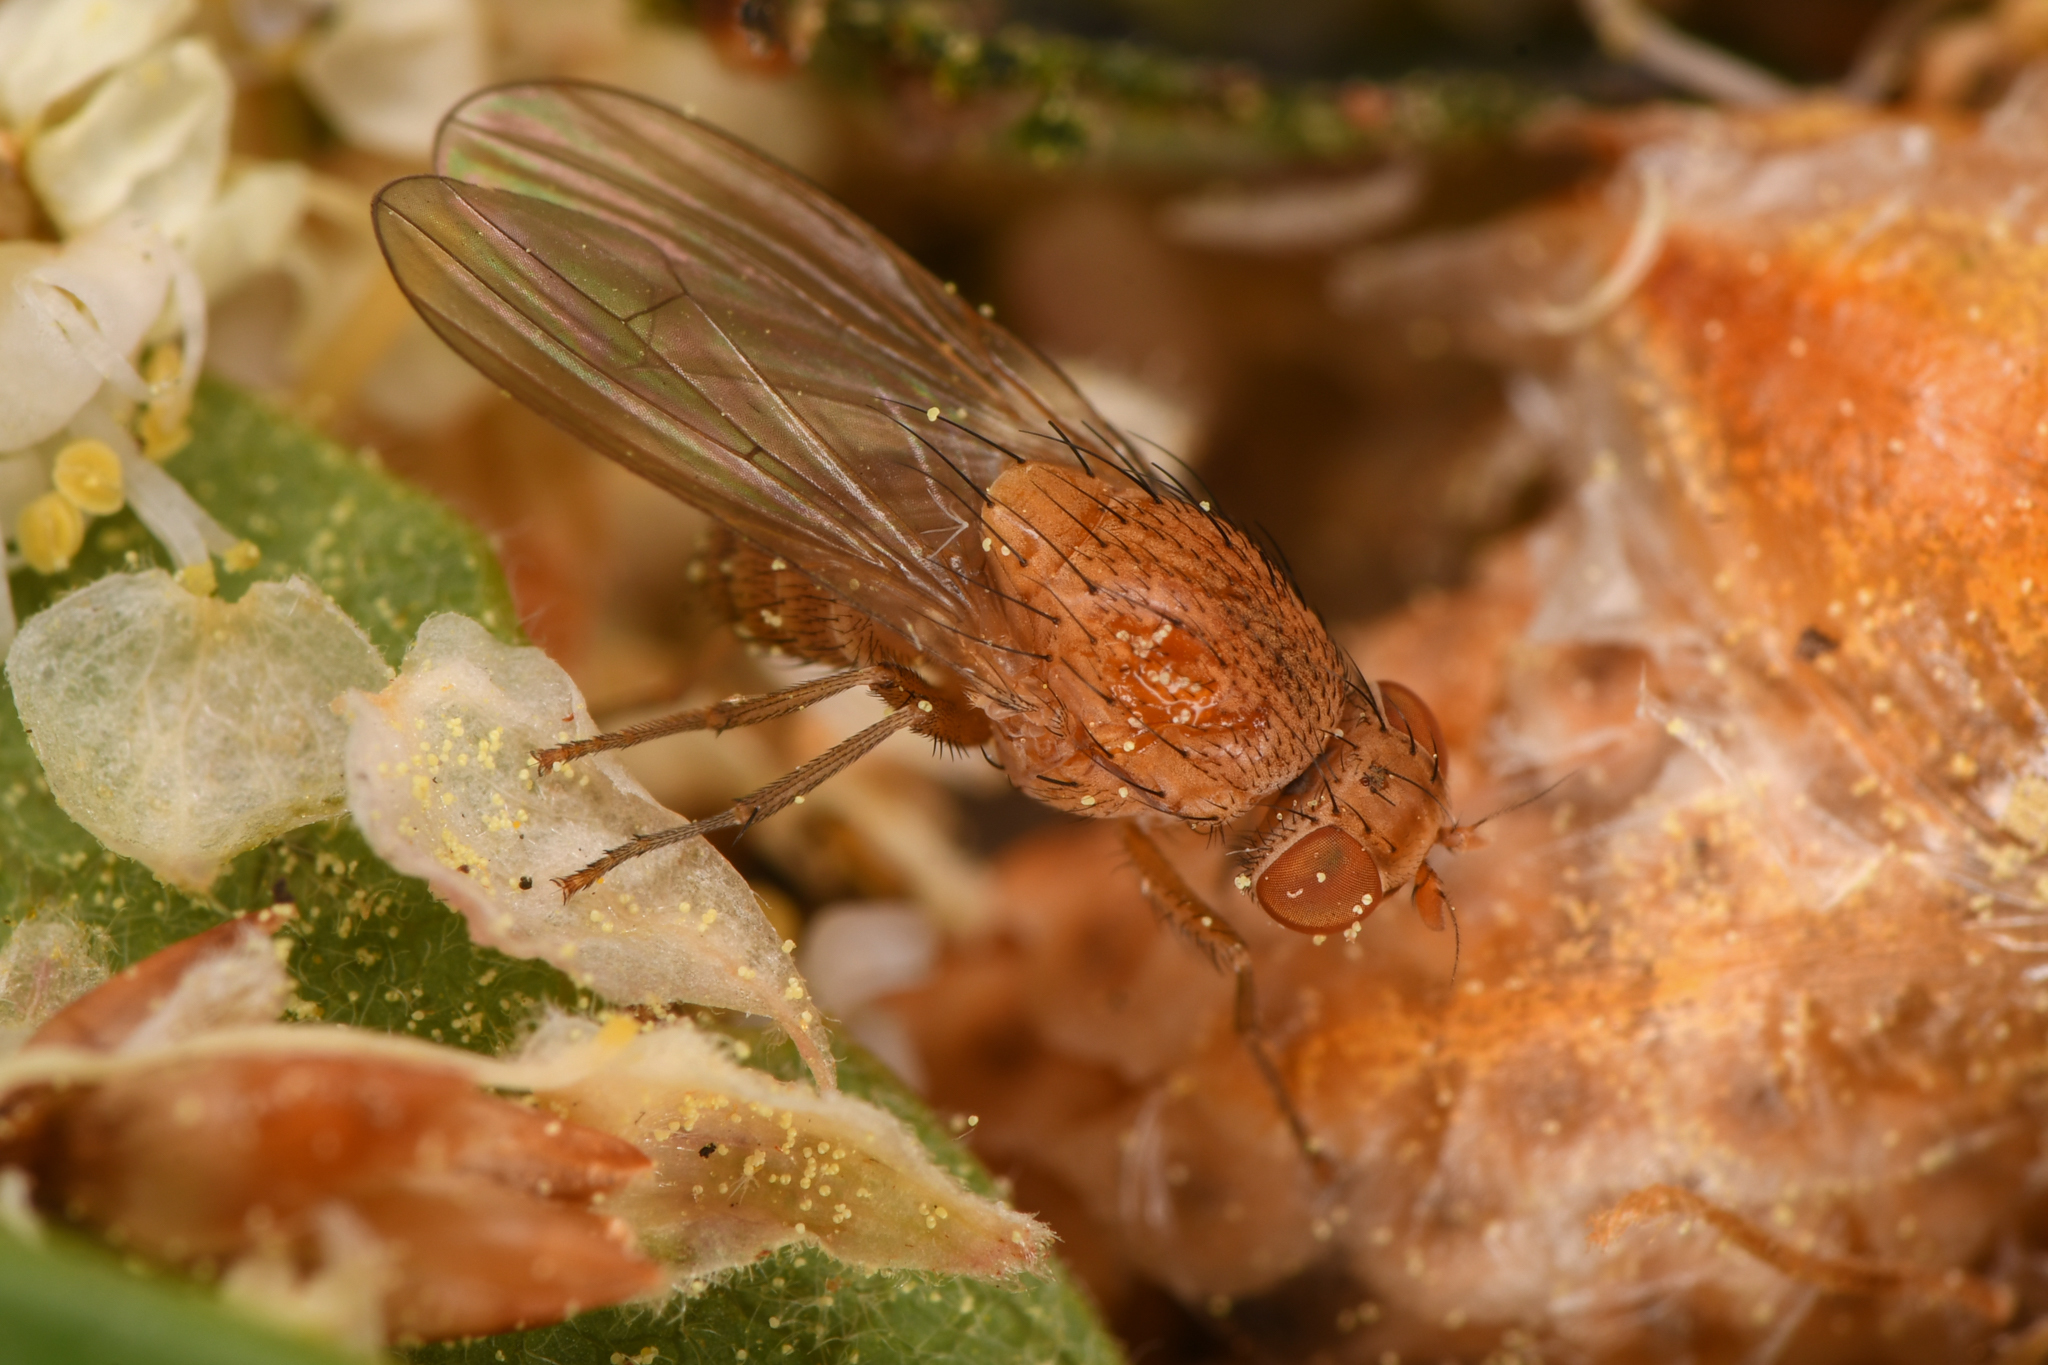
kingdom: Animalia
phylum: Arthropoda
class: Insecta
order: Diptera
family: Lauxaniidae
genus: Minettia
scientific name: Minettia flaveola
